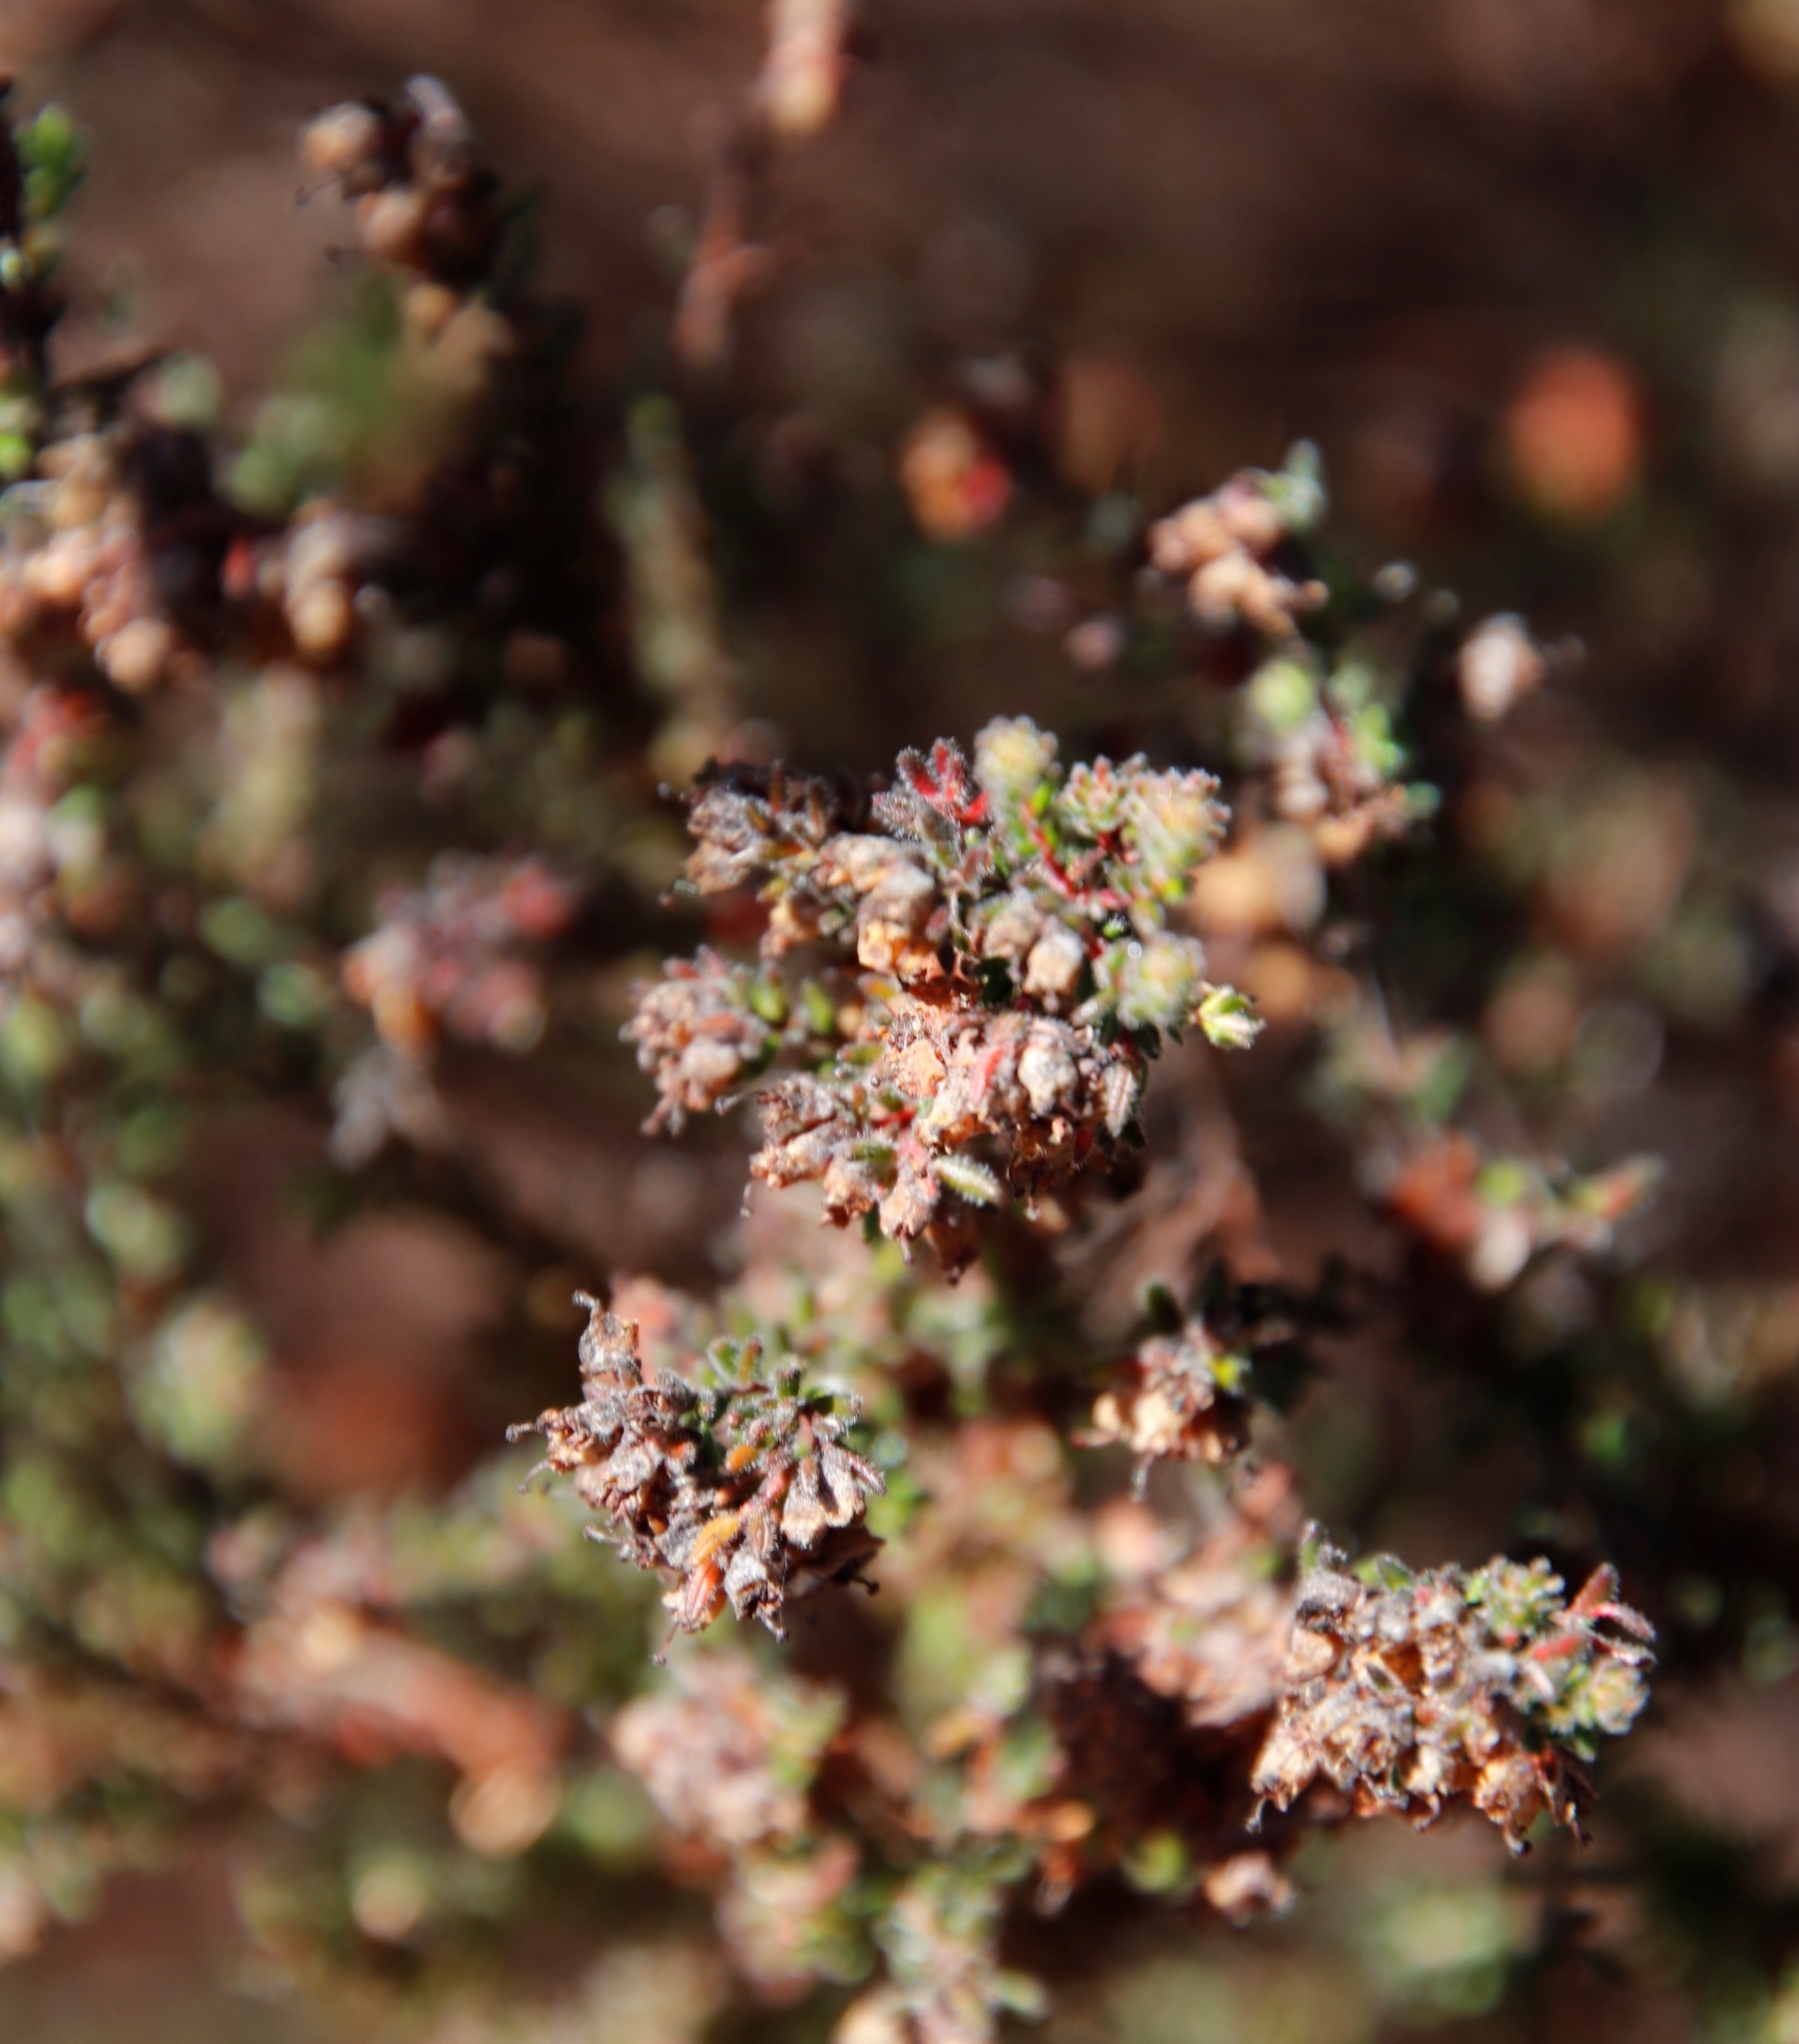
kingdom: Plantae
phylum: Tracheophyta
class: Magnoliopsida
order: Ericales
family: Ericaceae
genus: Erica
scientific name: Erica turgida
